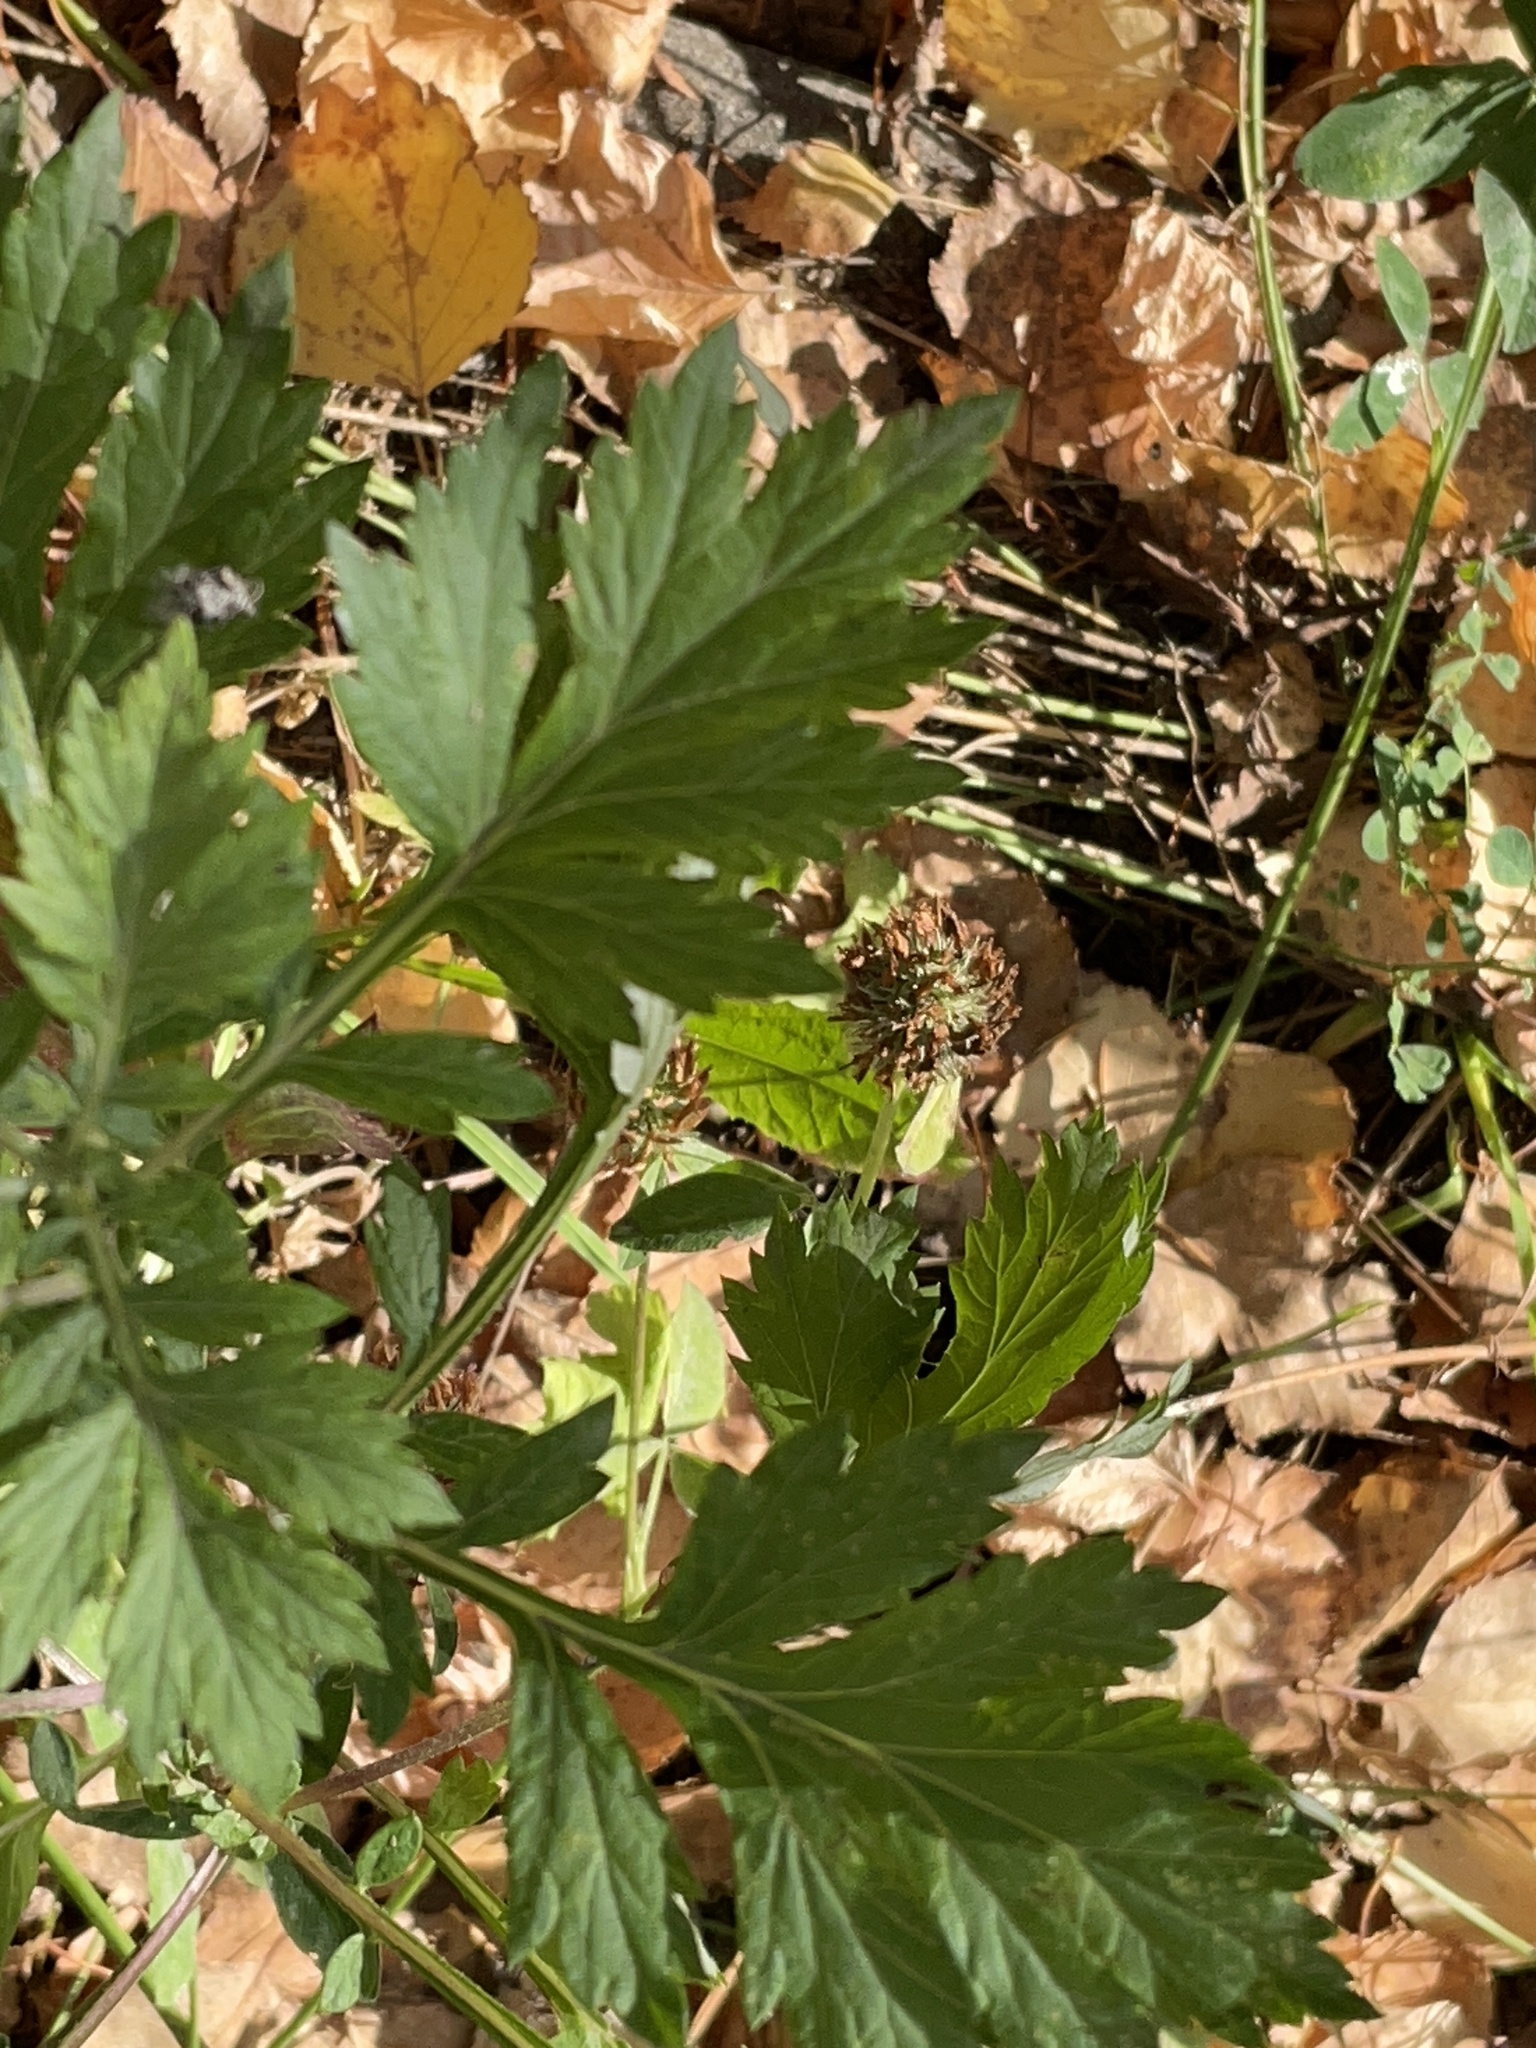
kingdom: Plantae
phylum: Tracheophyta
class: Magnoliopsida
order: Asterales
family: Asteraceae
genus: Artemisia
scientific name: Artemisia vulgaris
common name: Mugwort
